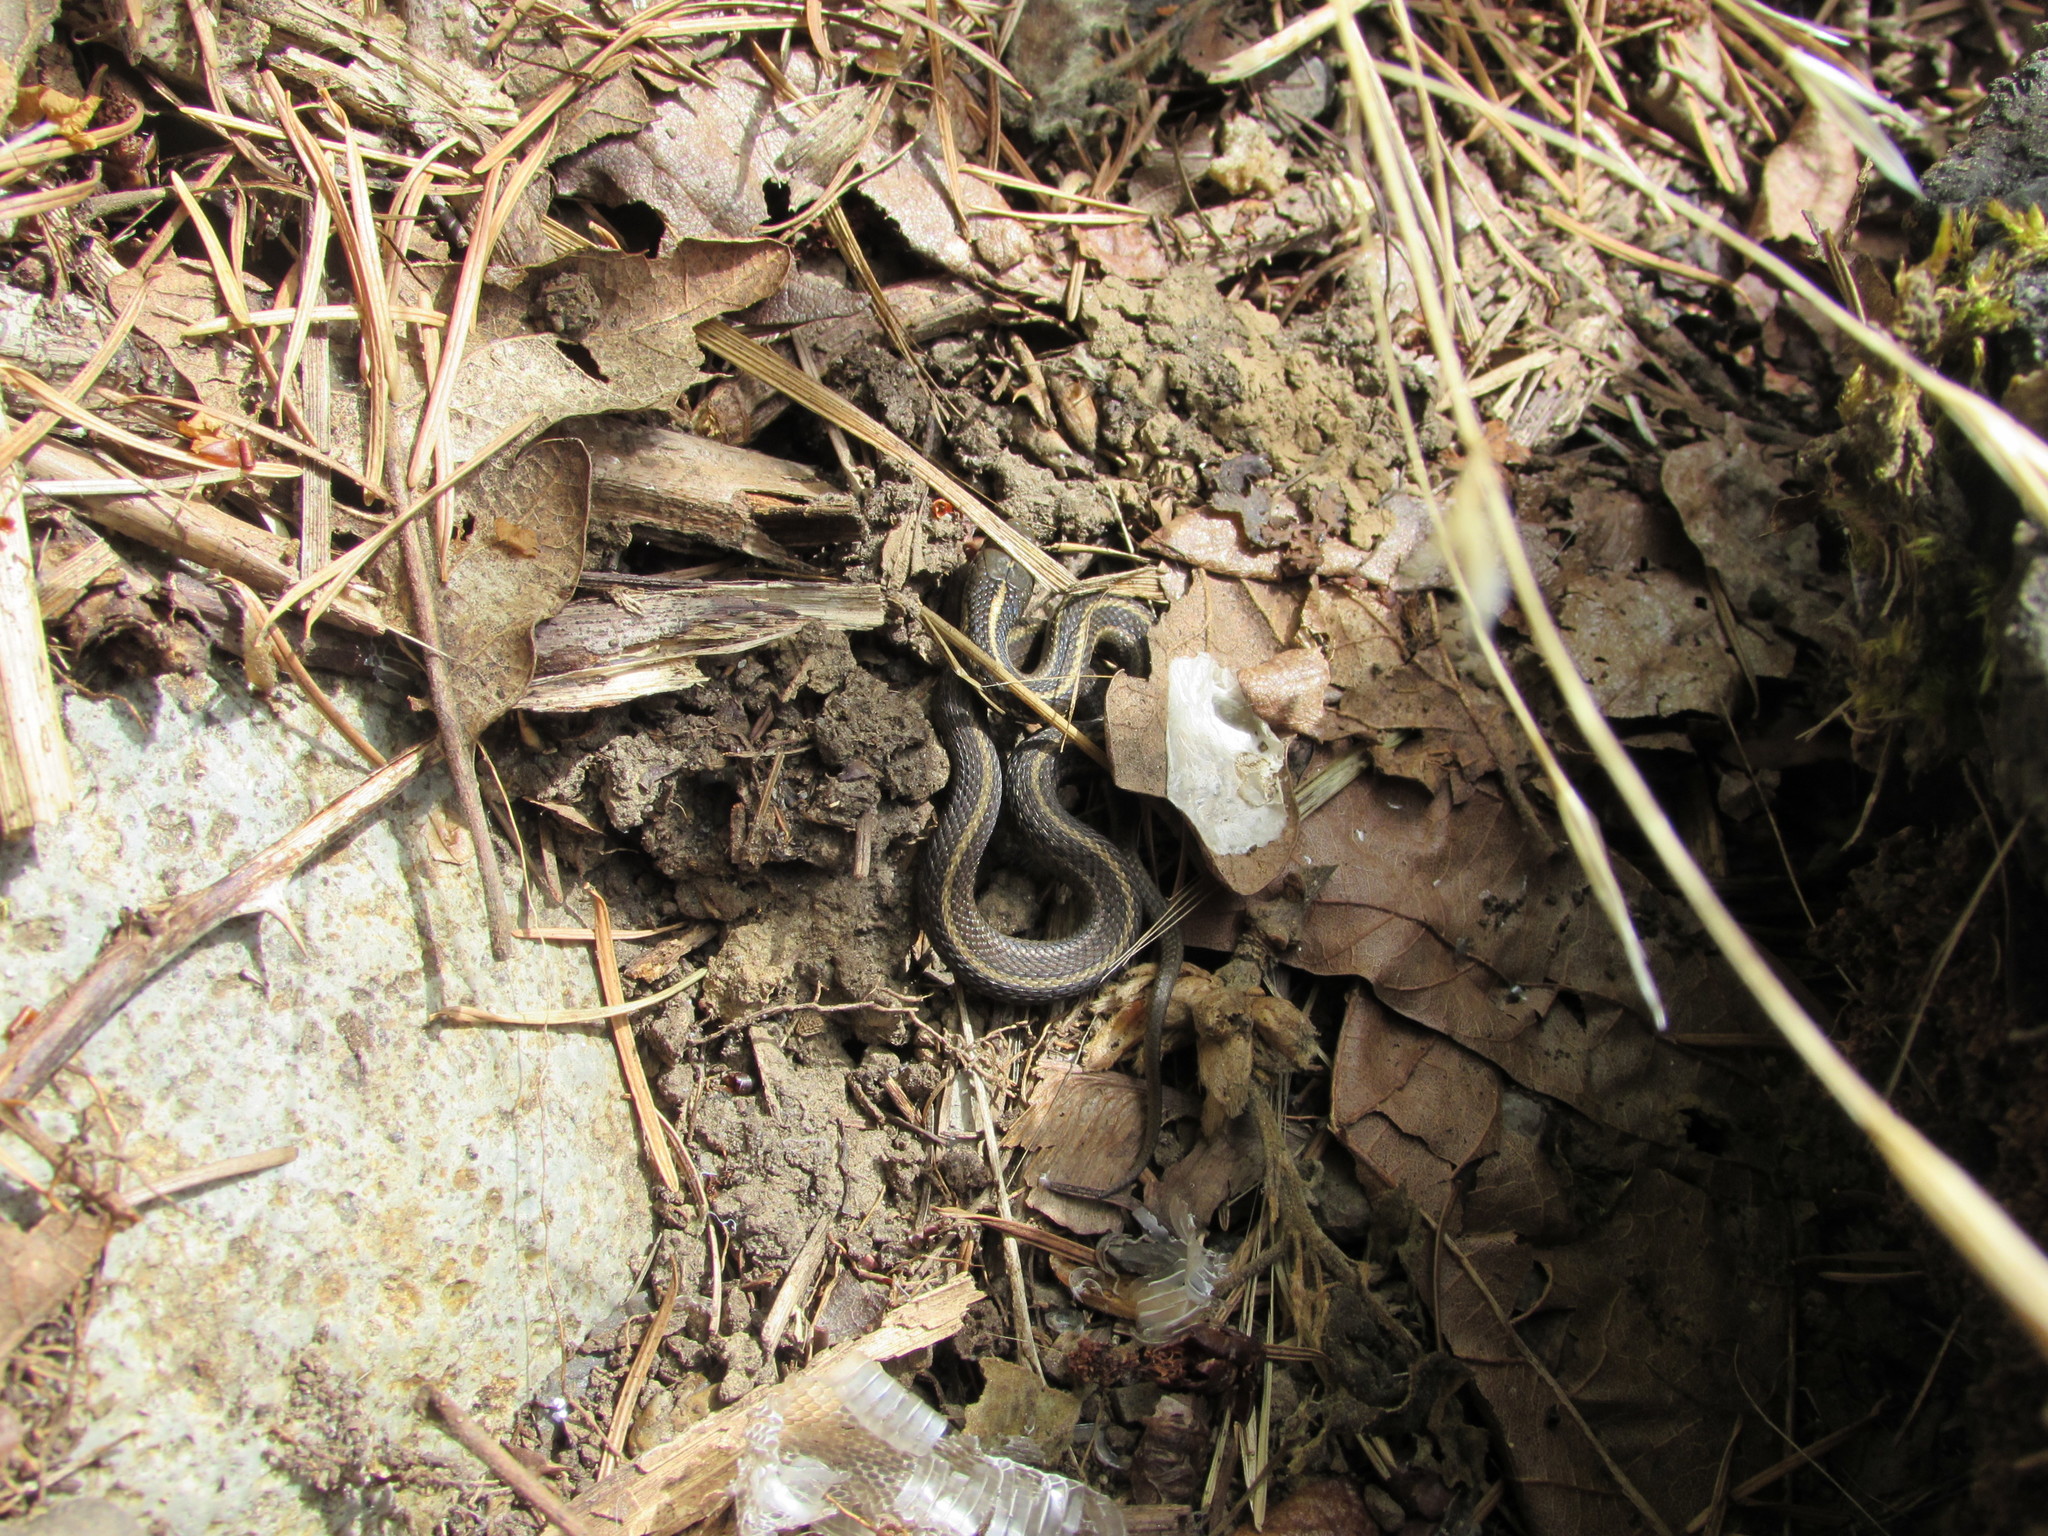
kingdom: Animalia
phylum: Chordata
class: Squamata
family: Colubridae
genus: Thamnophis
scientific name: Thamnophis ordinoides
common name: Northwestern garter snake
